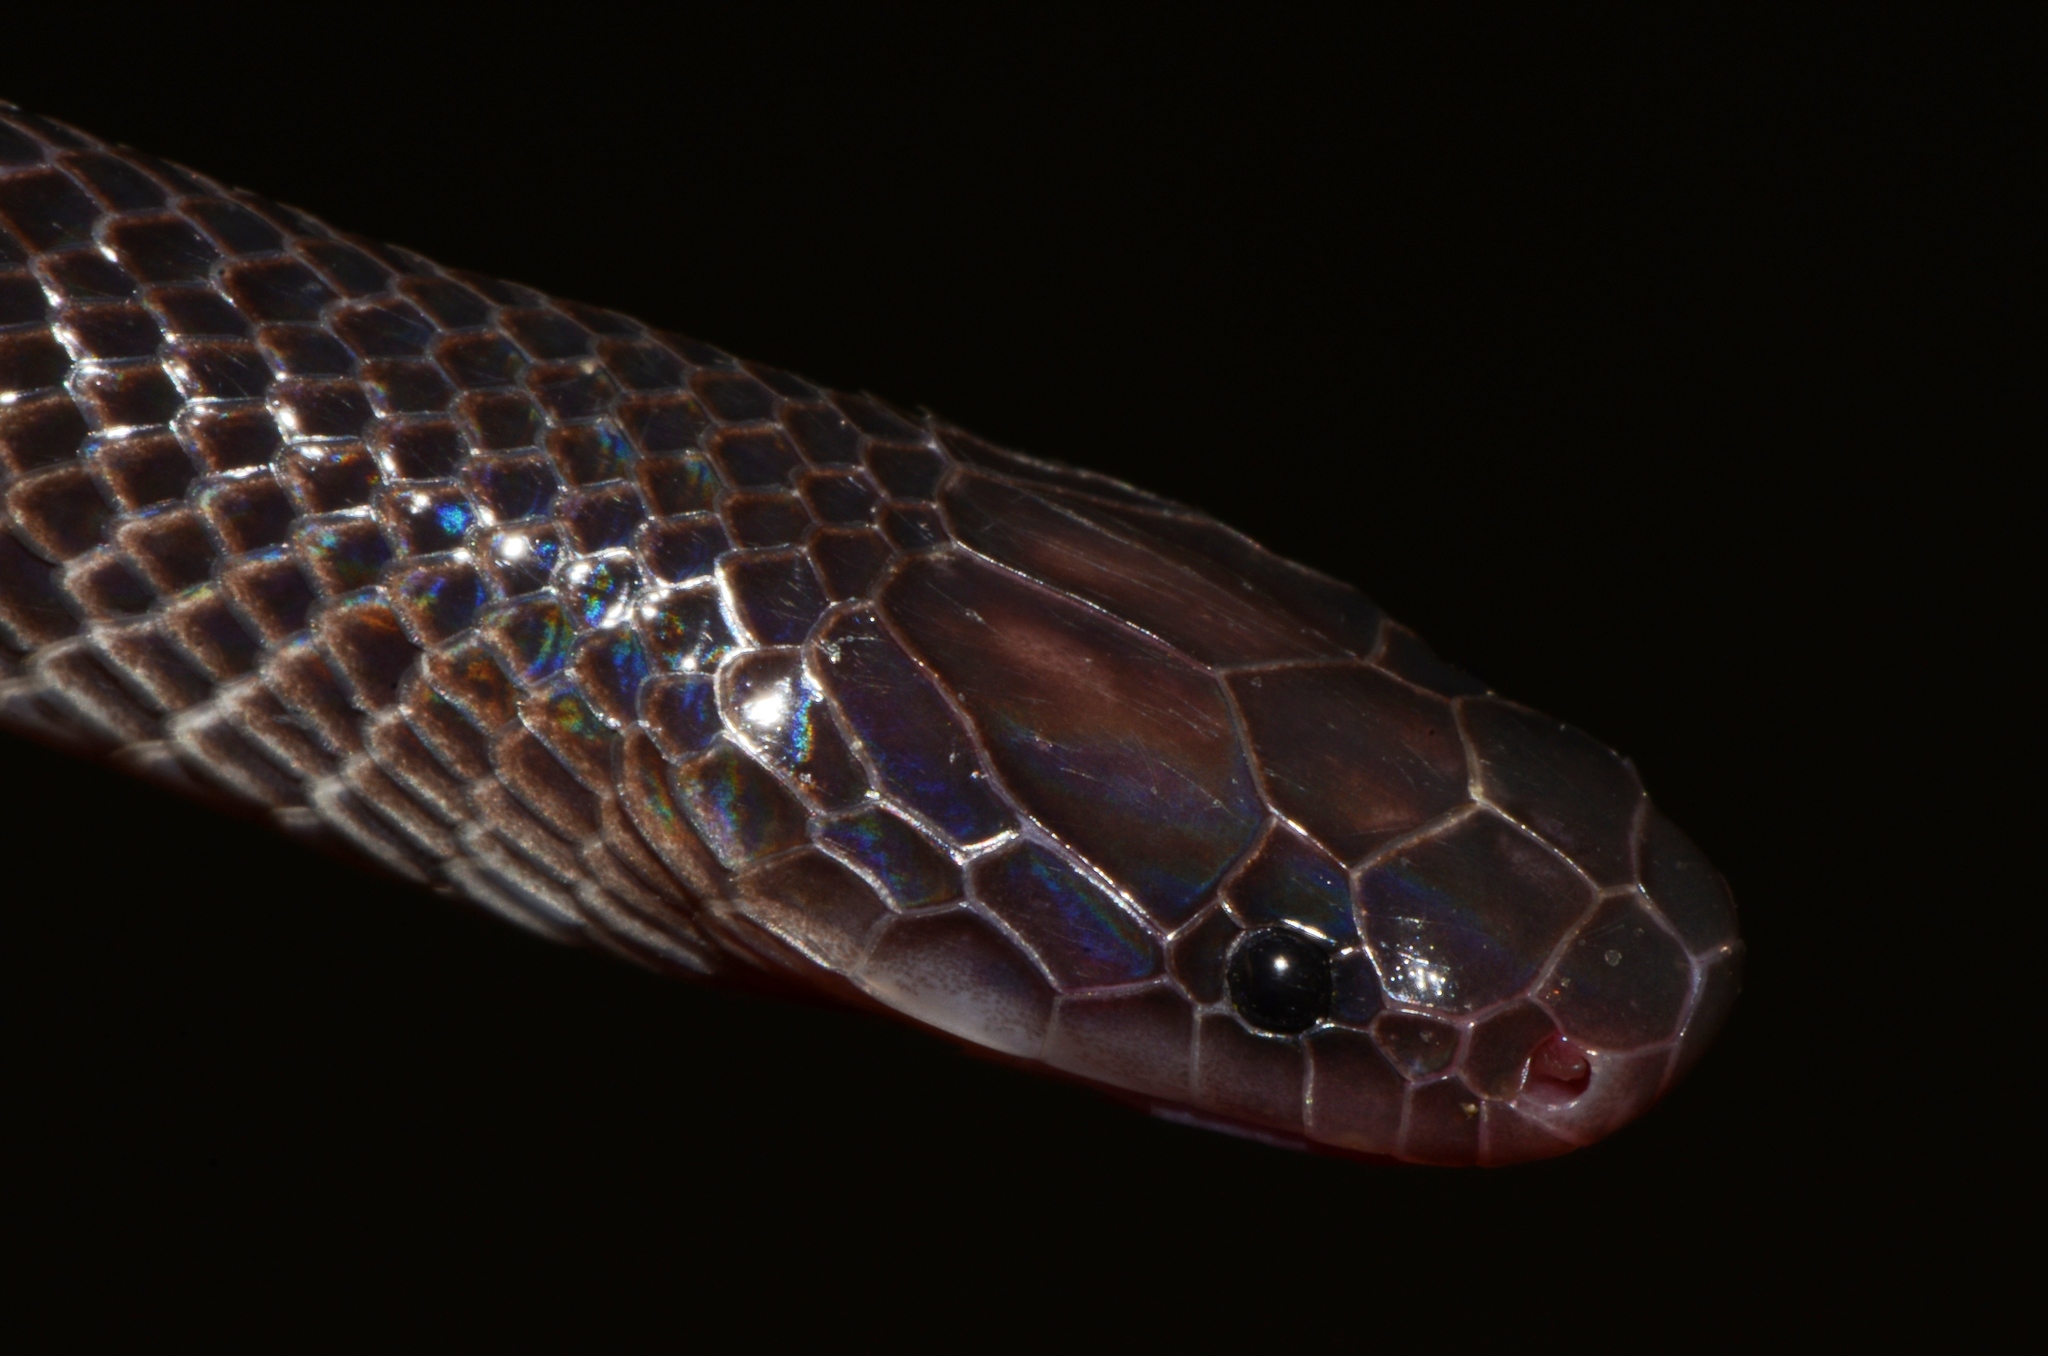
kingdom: Animalia
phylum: Chordata
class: Squamata
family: Lamprophiidae
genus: Mehelya
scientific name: Mehelya stenophthalmus
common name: Small-eyed file snake
